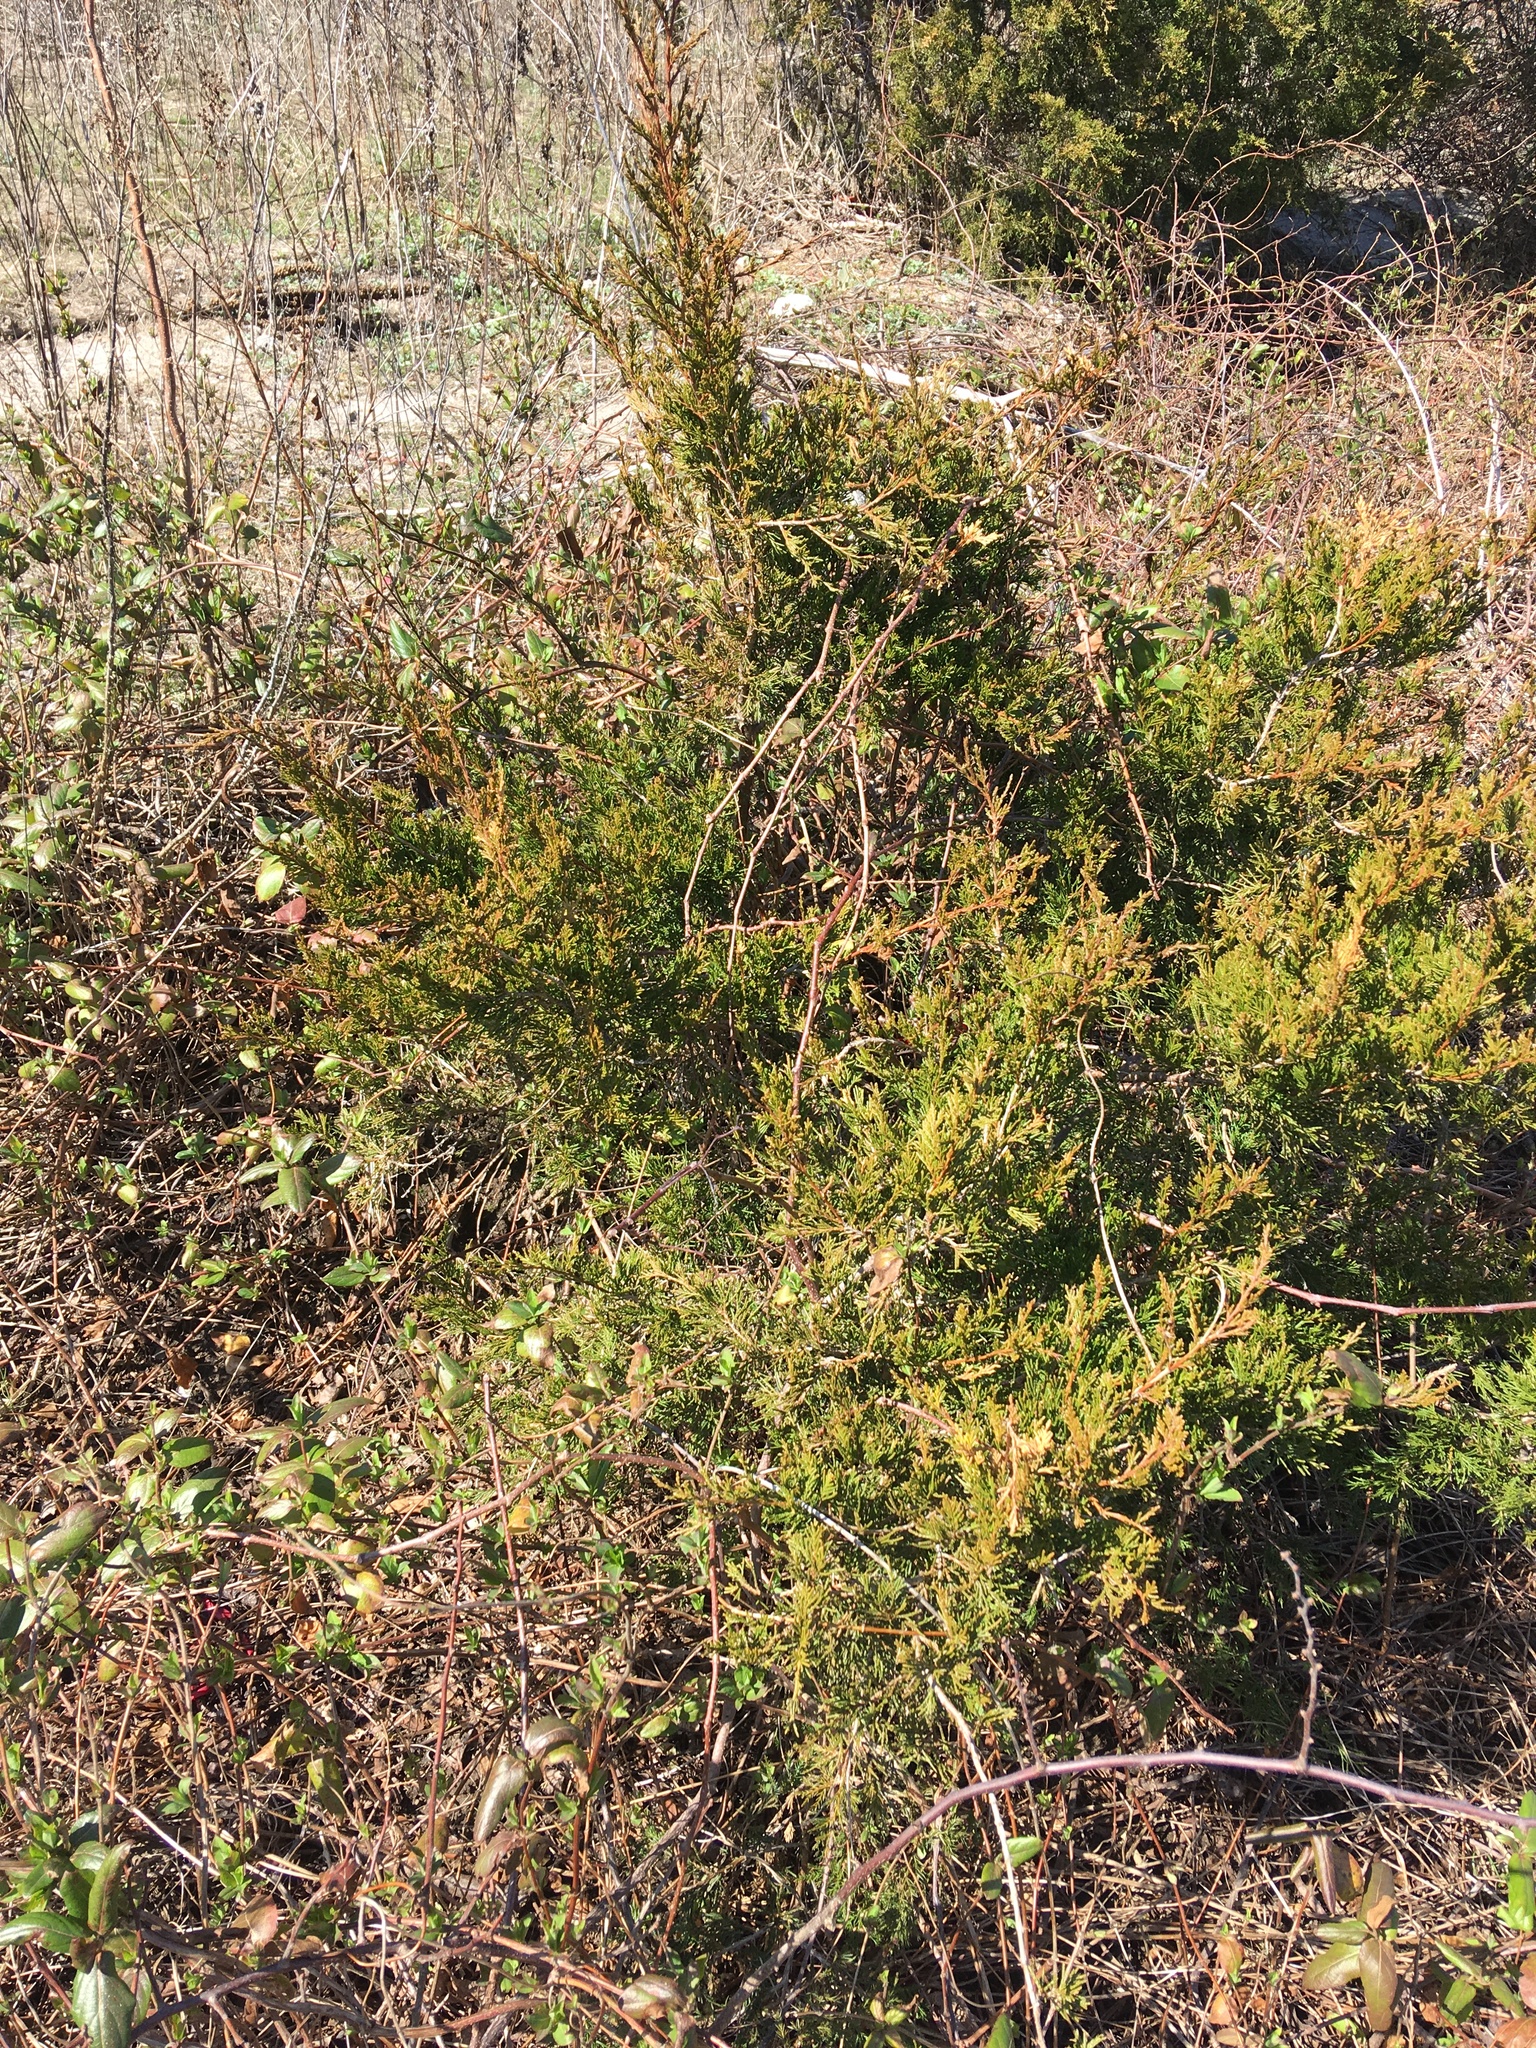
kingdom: Plantae
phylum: Tracheophyta
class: Pinopsida
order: Pinales
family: Cupressaceae
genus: Juniperus
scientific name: Juniperus virginiana
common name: Red juniper
